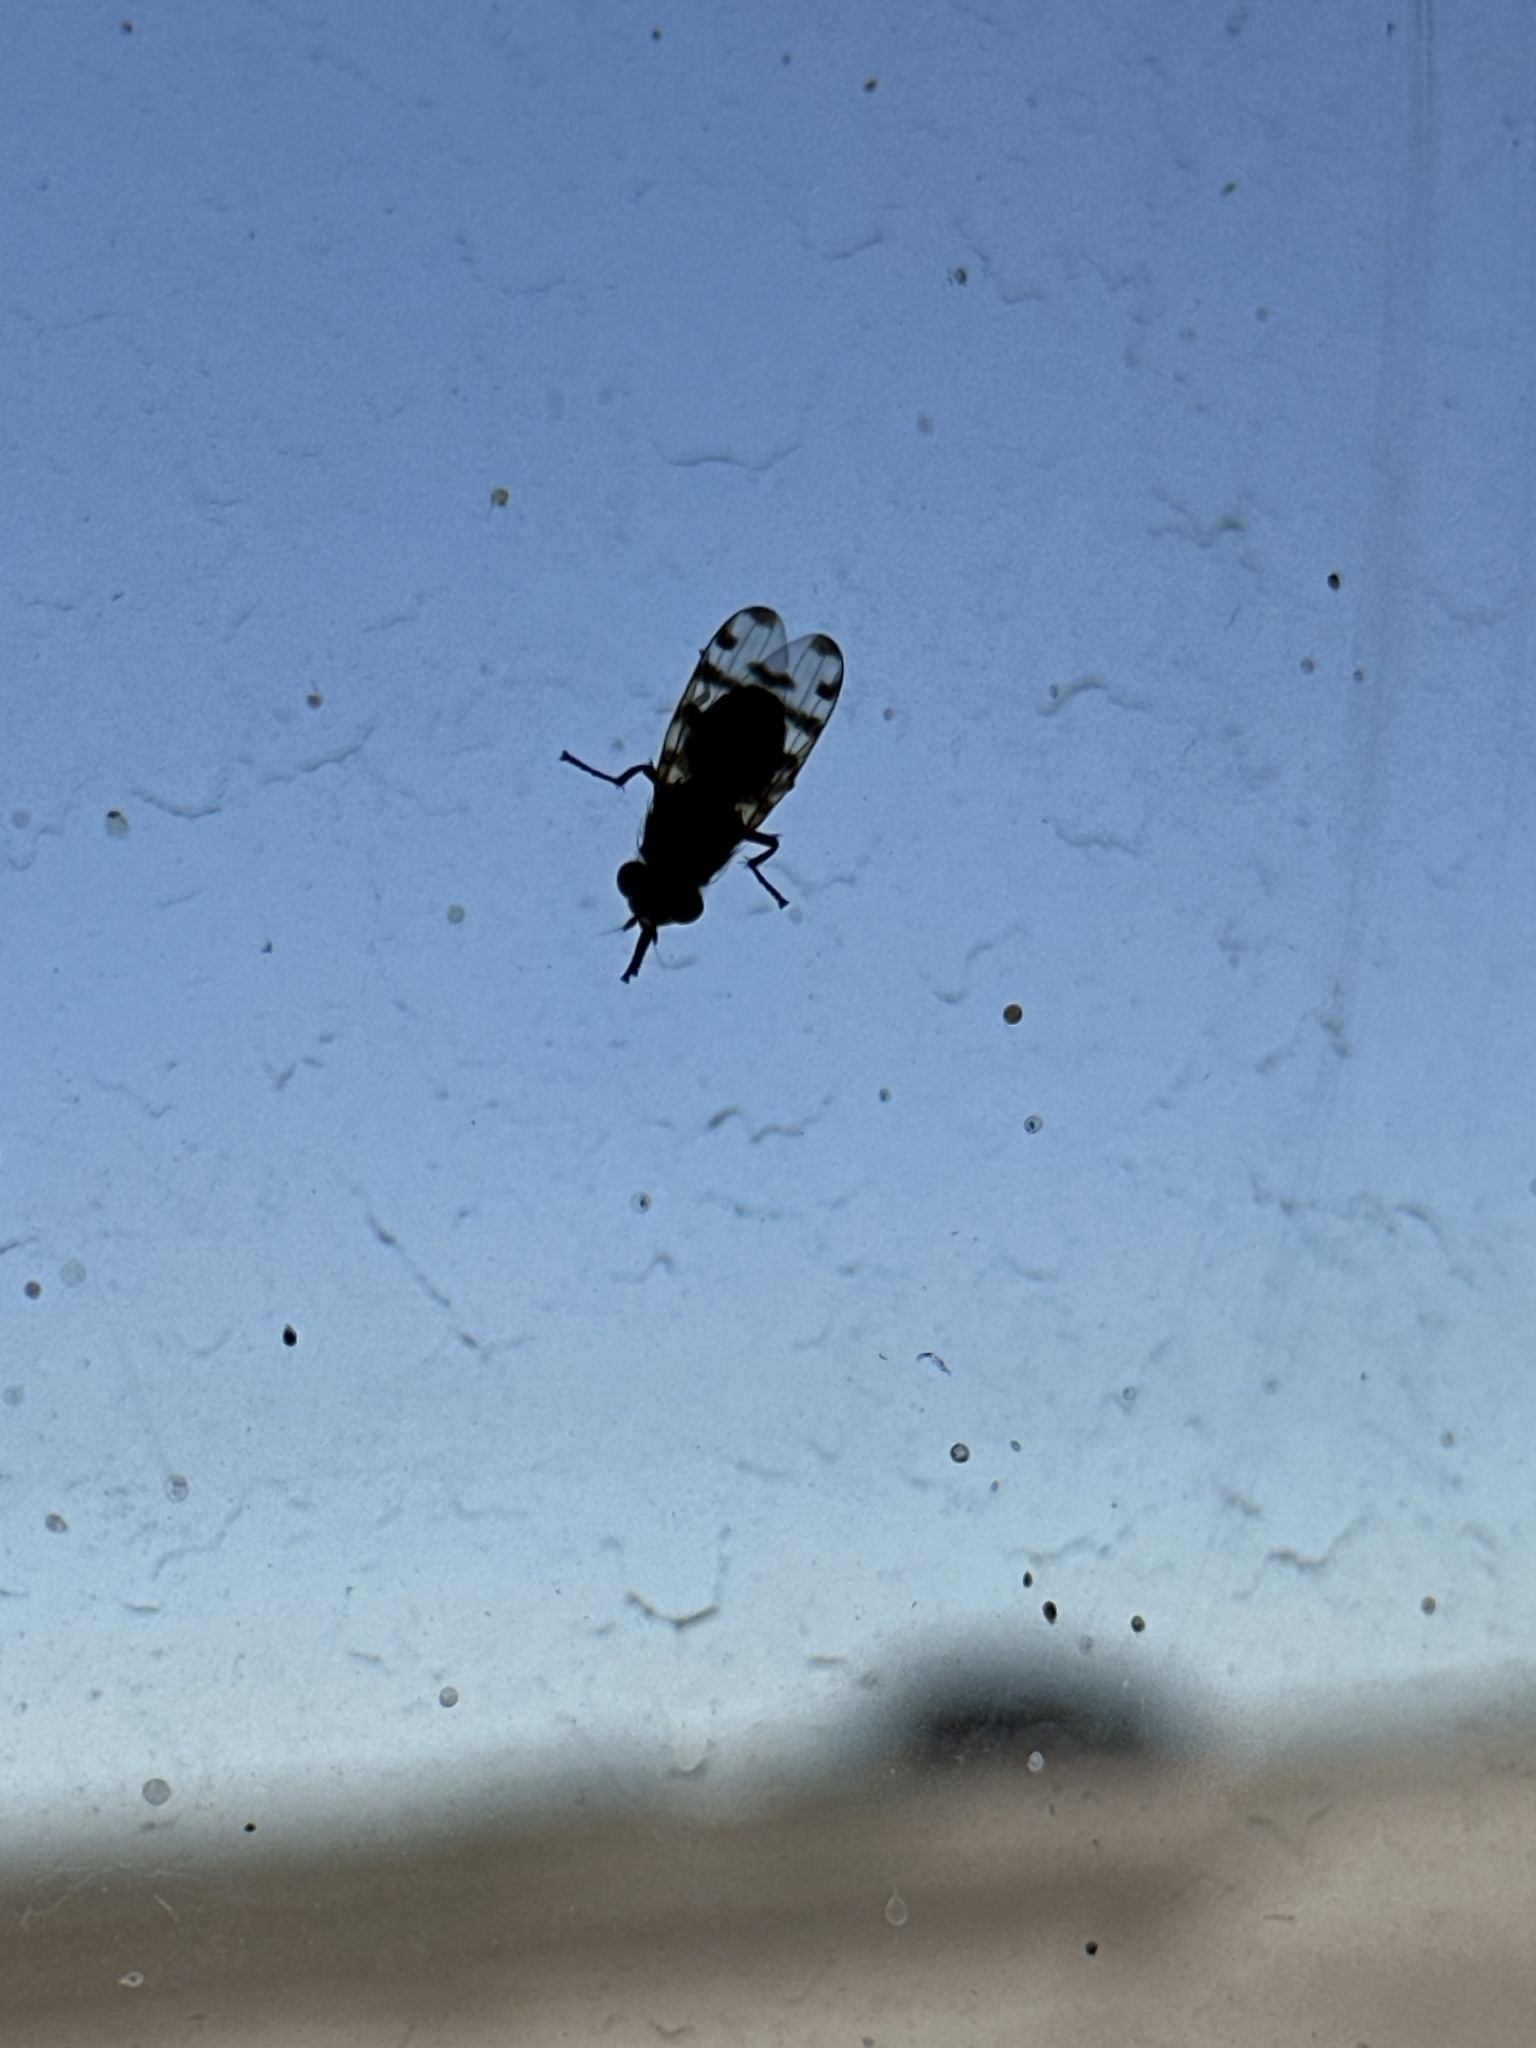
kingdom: Animalia
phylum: Arthropoda
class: Insecta
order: Diptera
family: Ulidiidae
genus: Ceroxys
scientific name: Ceroxys latiusculus
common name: Picture-winged fly
